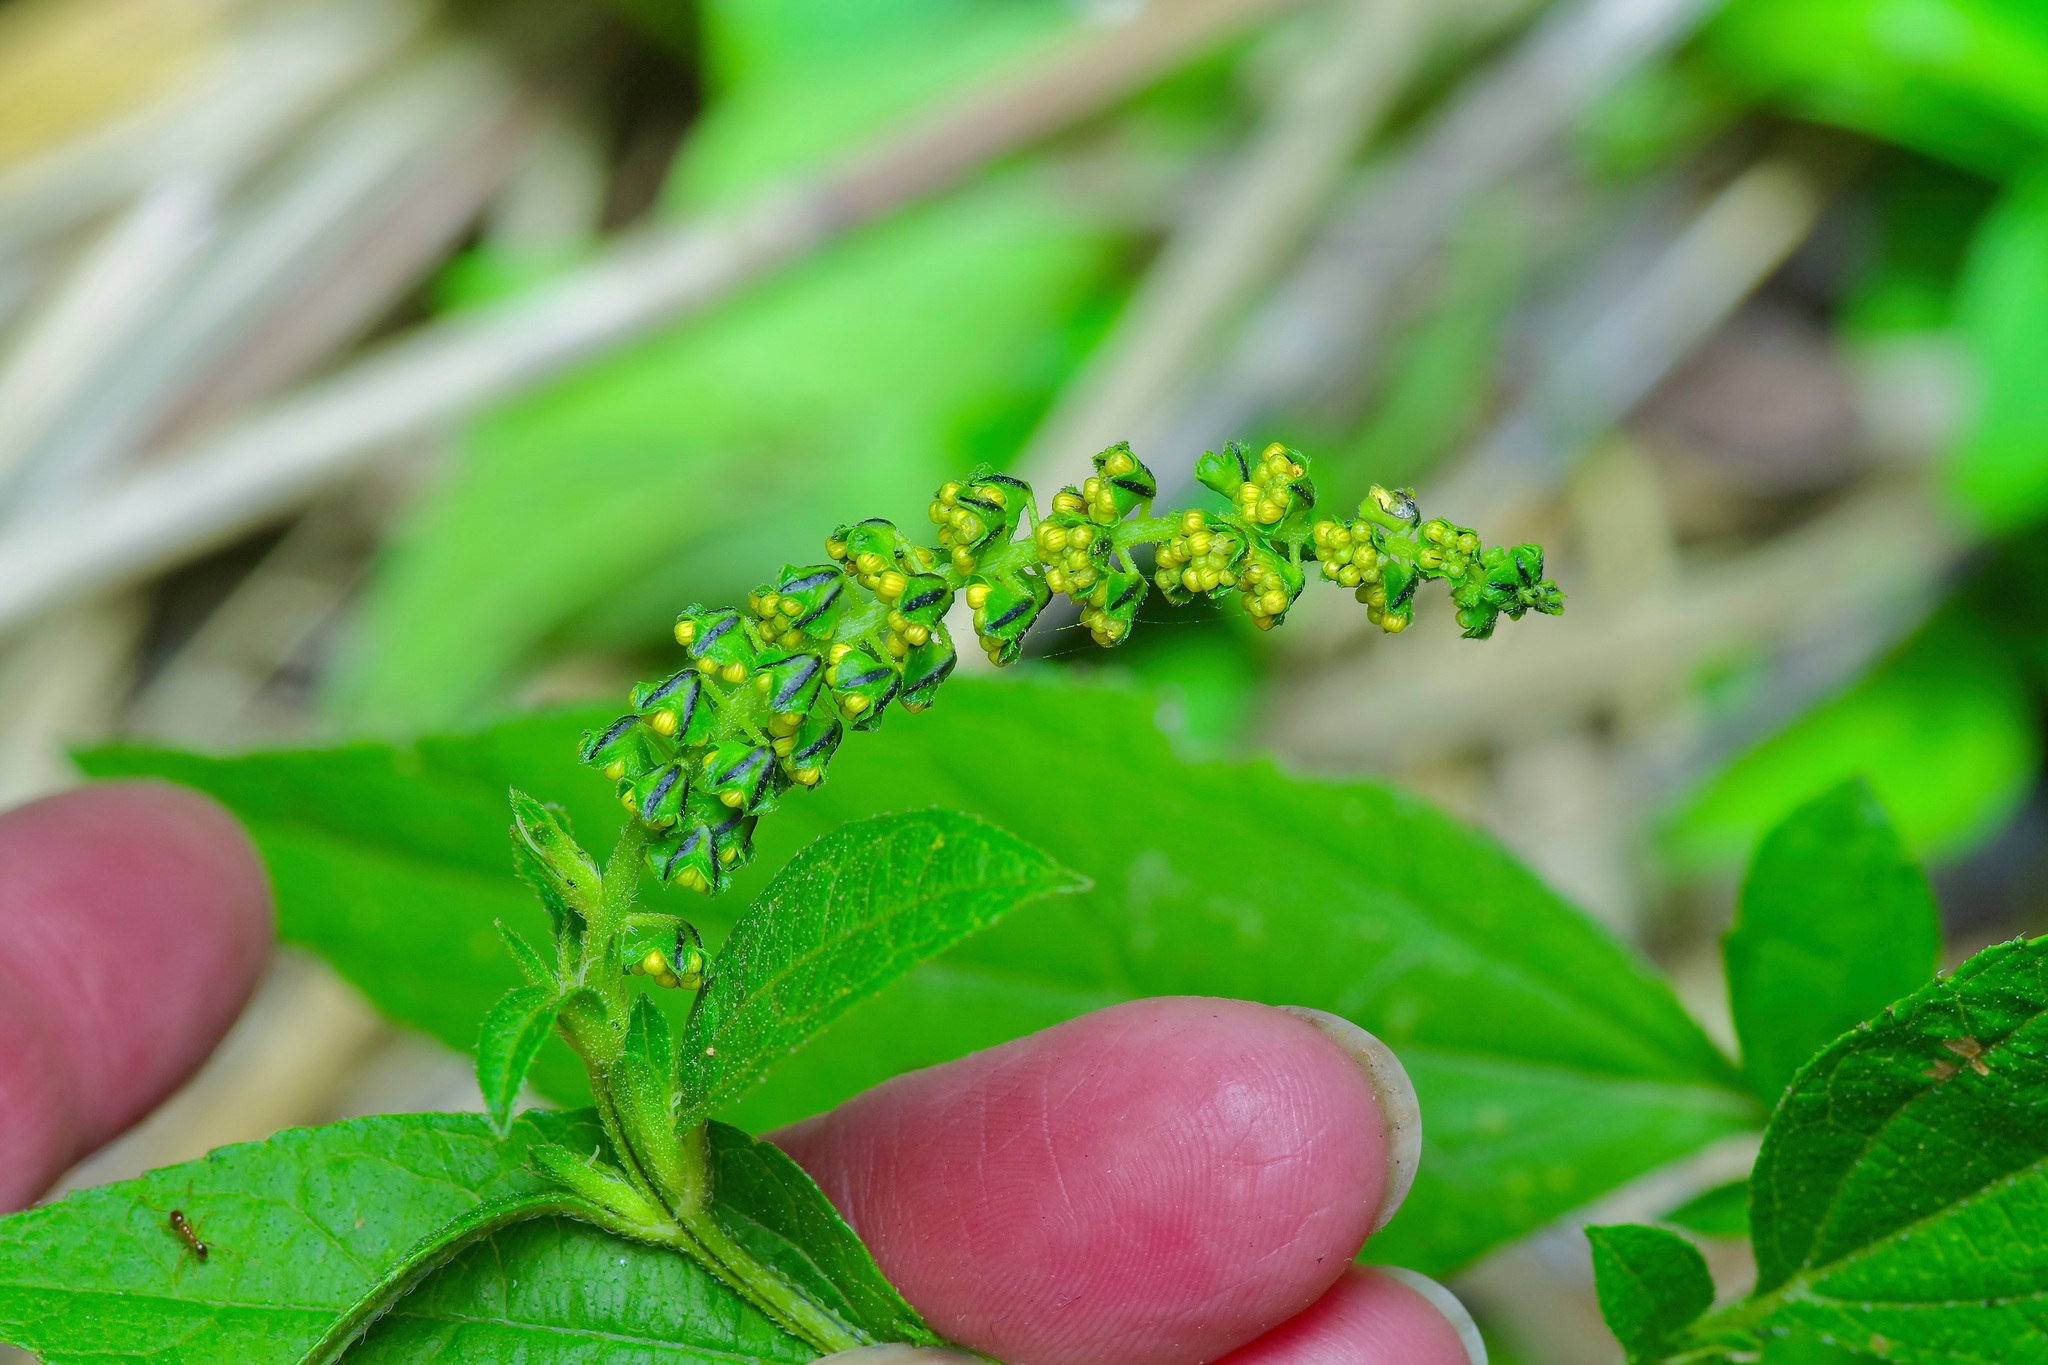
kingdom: Plantae
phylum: Tracheophyta
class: Magnoliopsida
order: Asterales
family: Asteraceae
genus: Ambrosia
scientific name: Ambrosia trifida
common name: Giant ragweed
